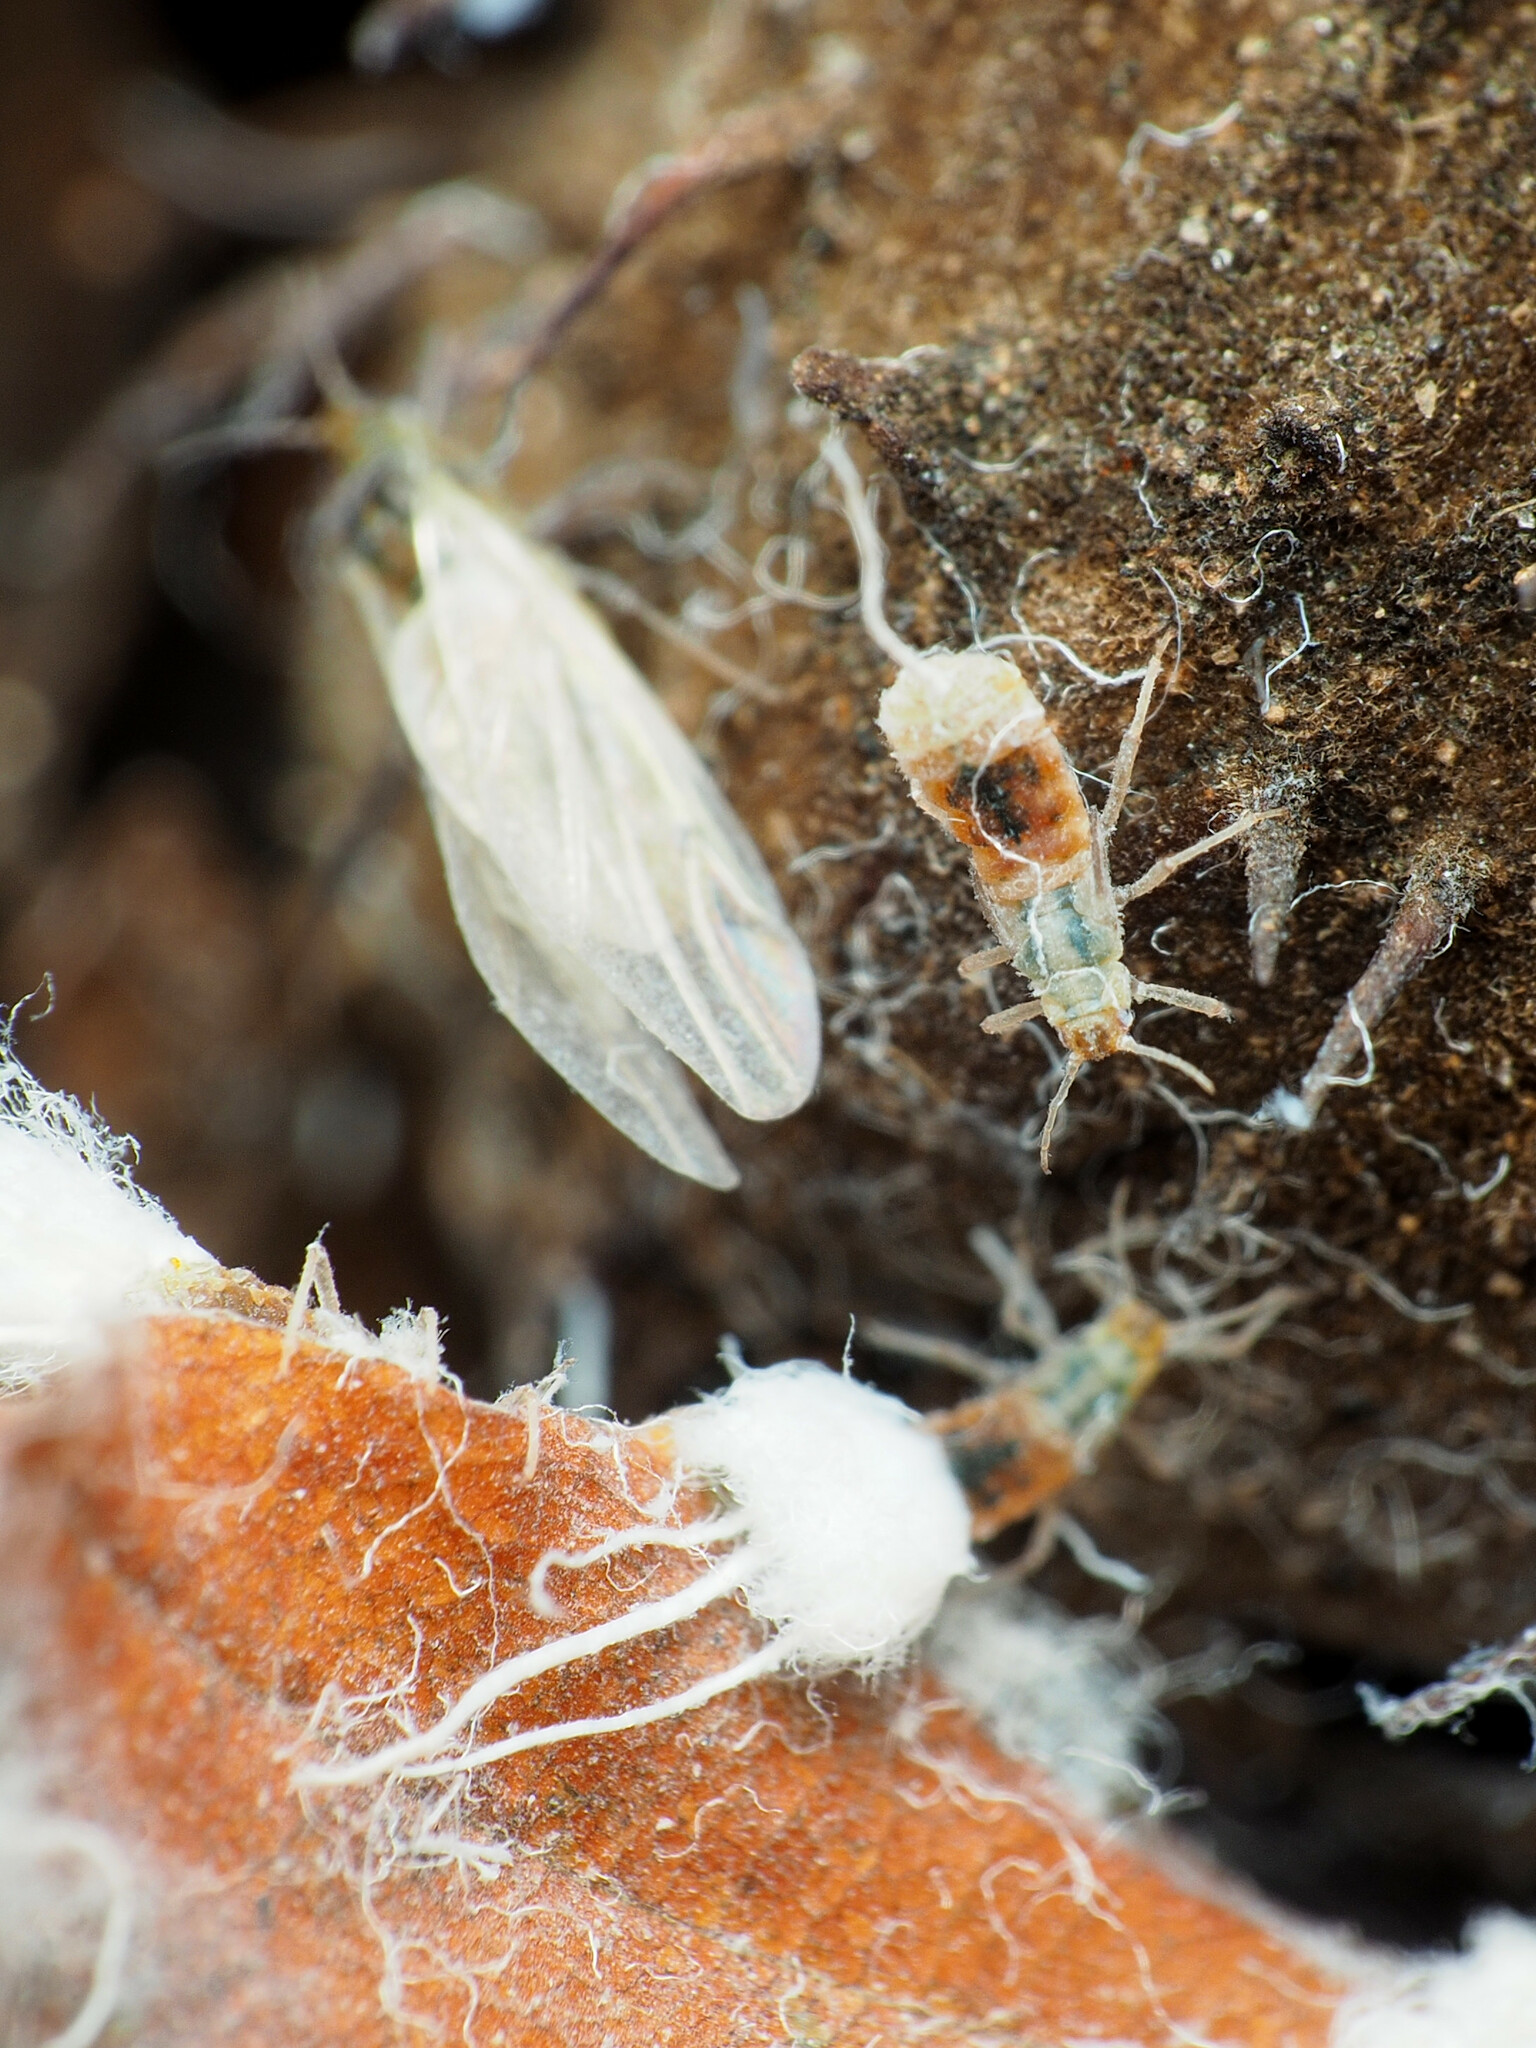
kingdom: Animalia
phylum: Arthropoda
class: Insecta
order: Hemiptera
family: Aphididae
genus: Grylloprociphilus
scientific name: Grylloprociphilus imbricator
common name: Beech blight aphid
